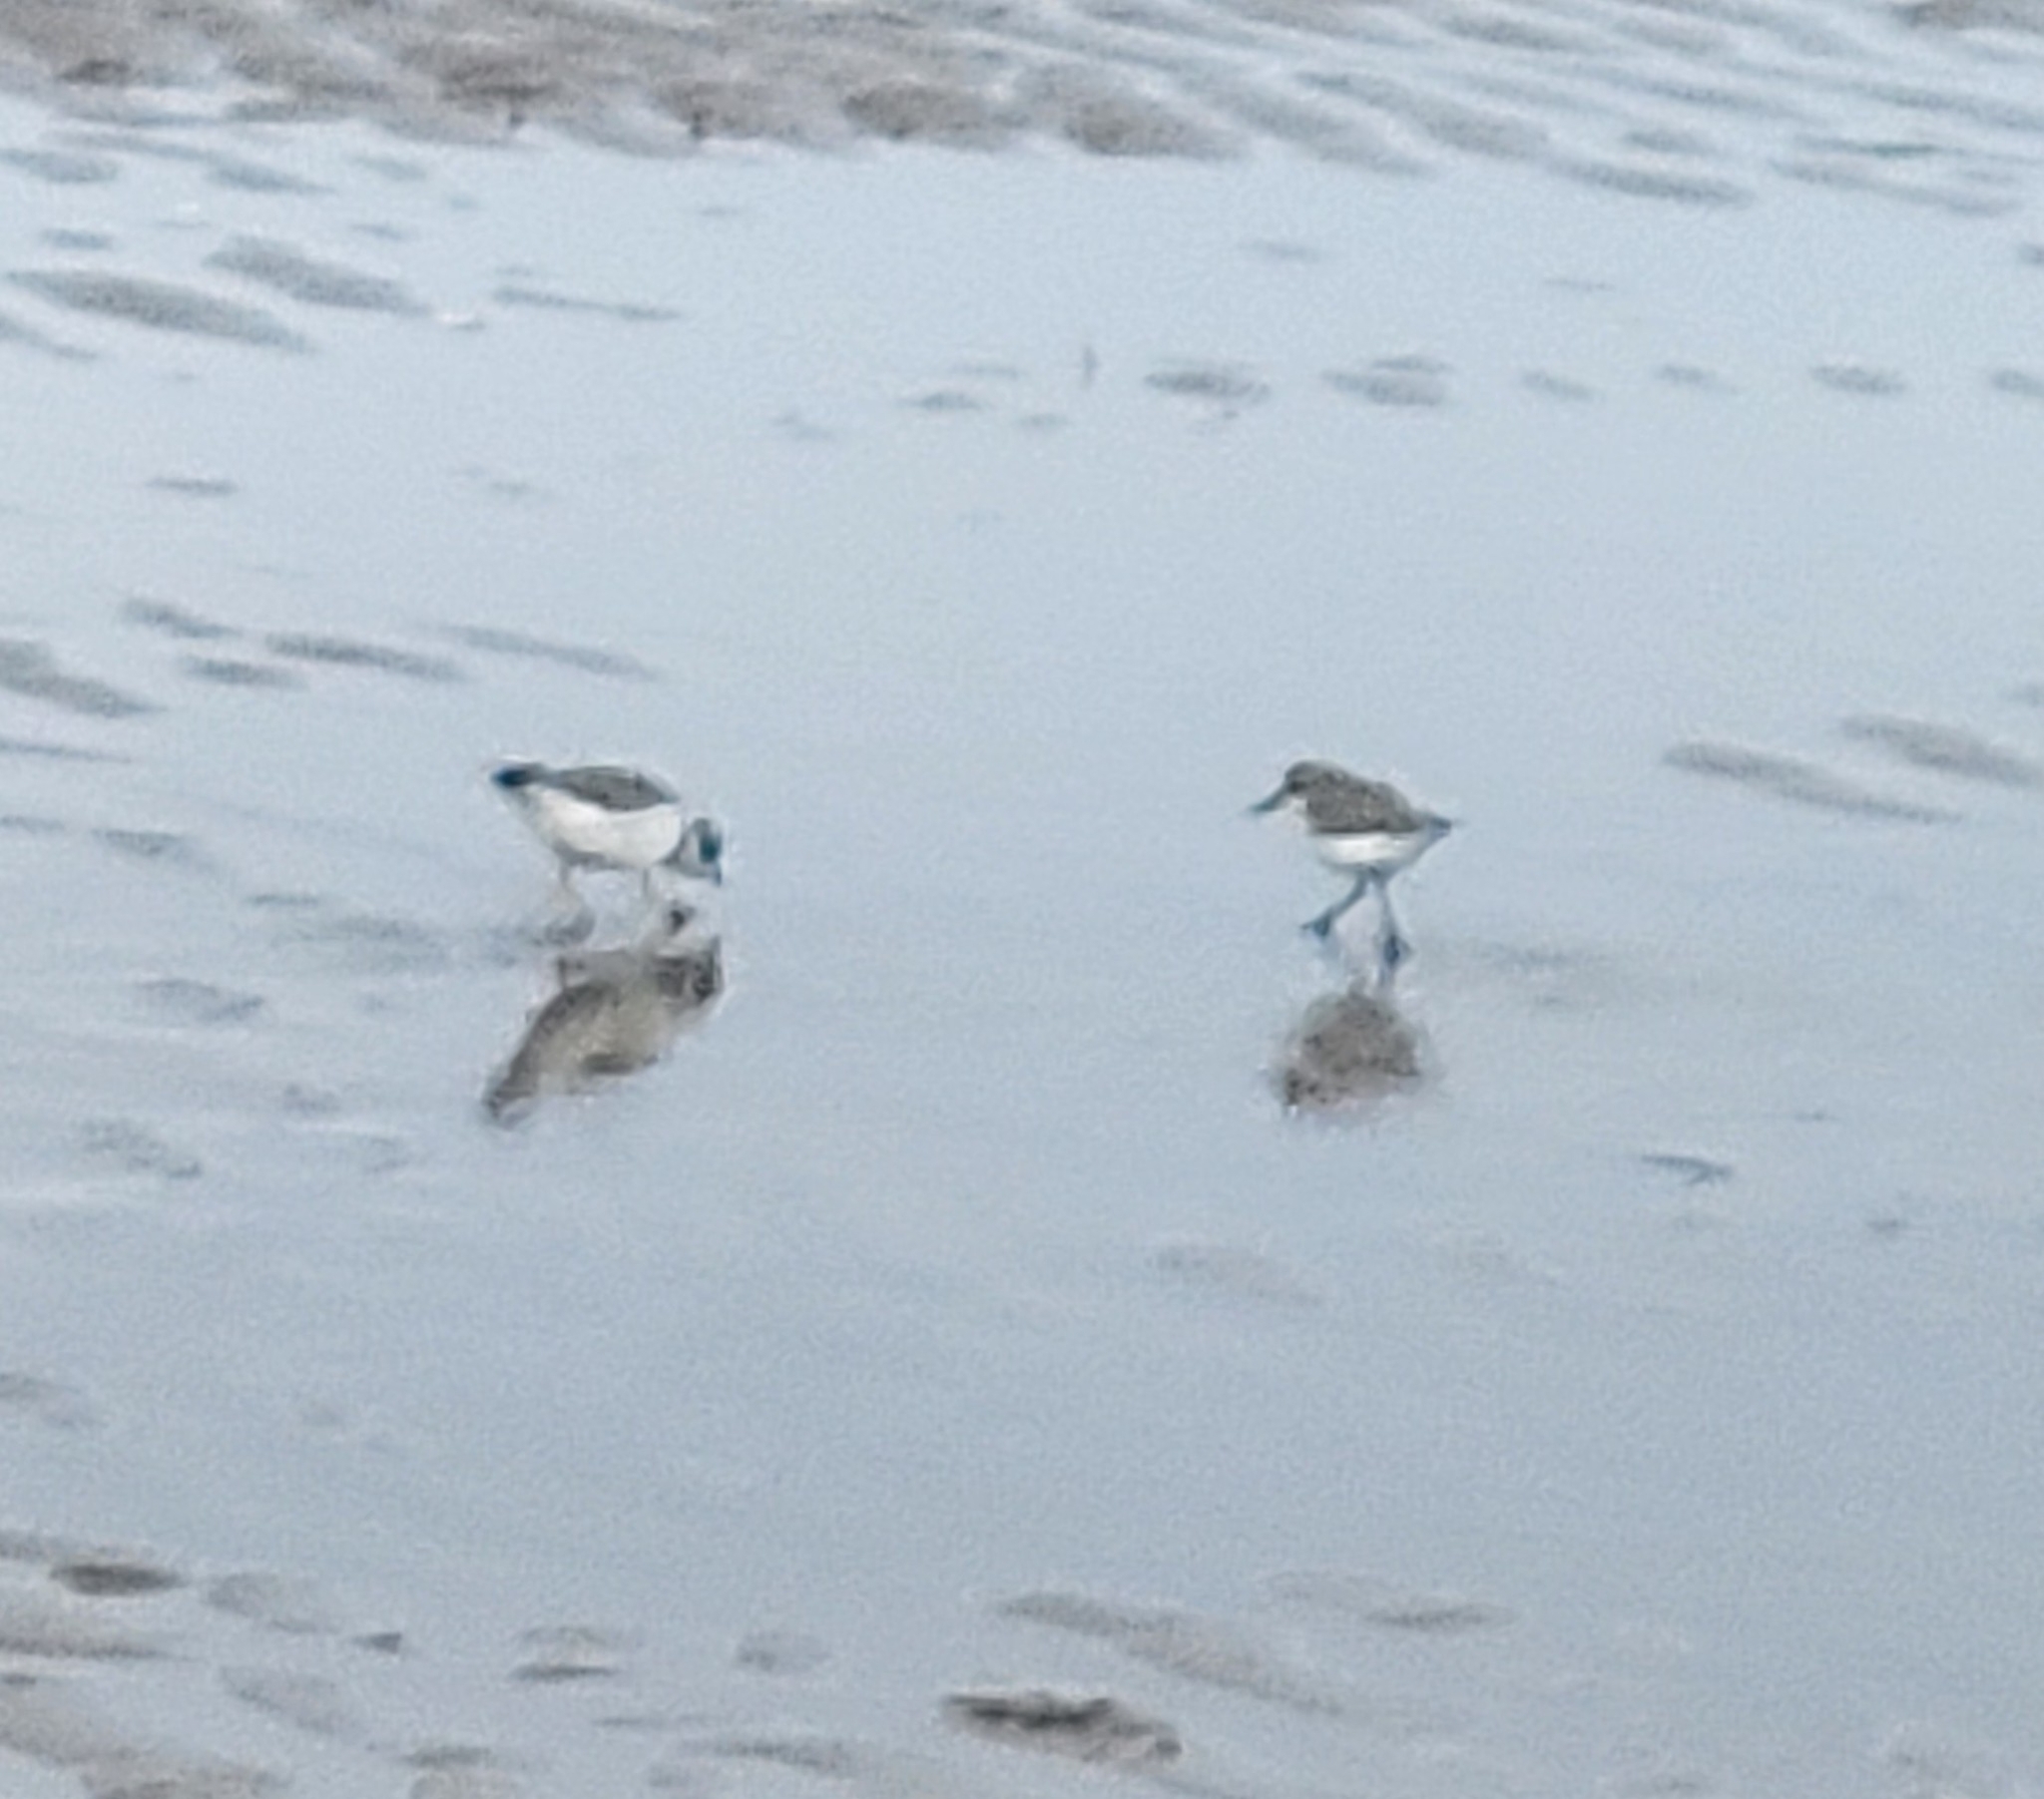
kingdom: Animalia
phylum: Chordata
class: Aves
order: Charadriiformes
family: Charadriidae
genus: Charadrius
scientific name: Charadrius semipalmatus
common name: Semipalmated plover
